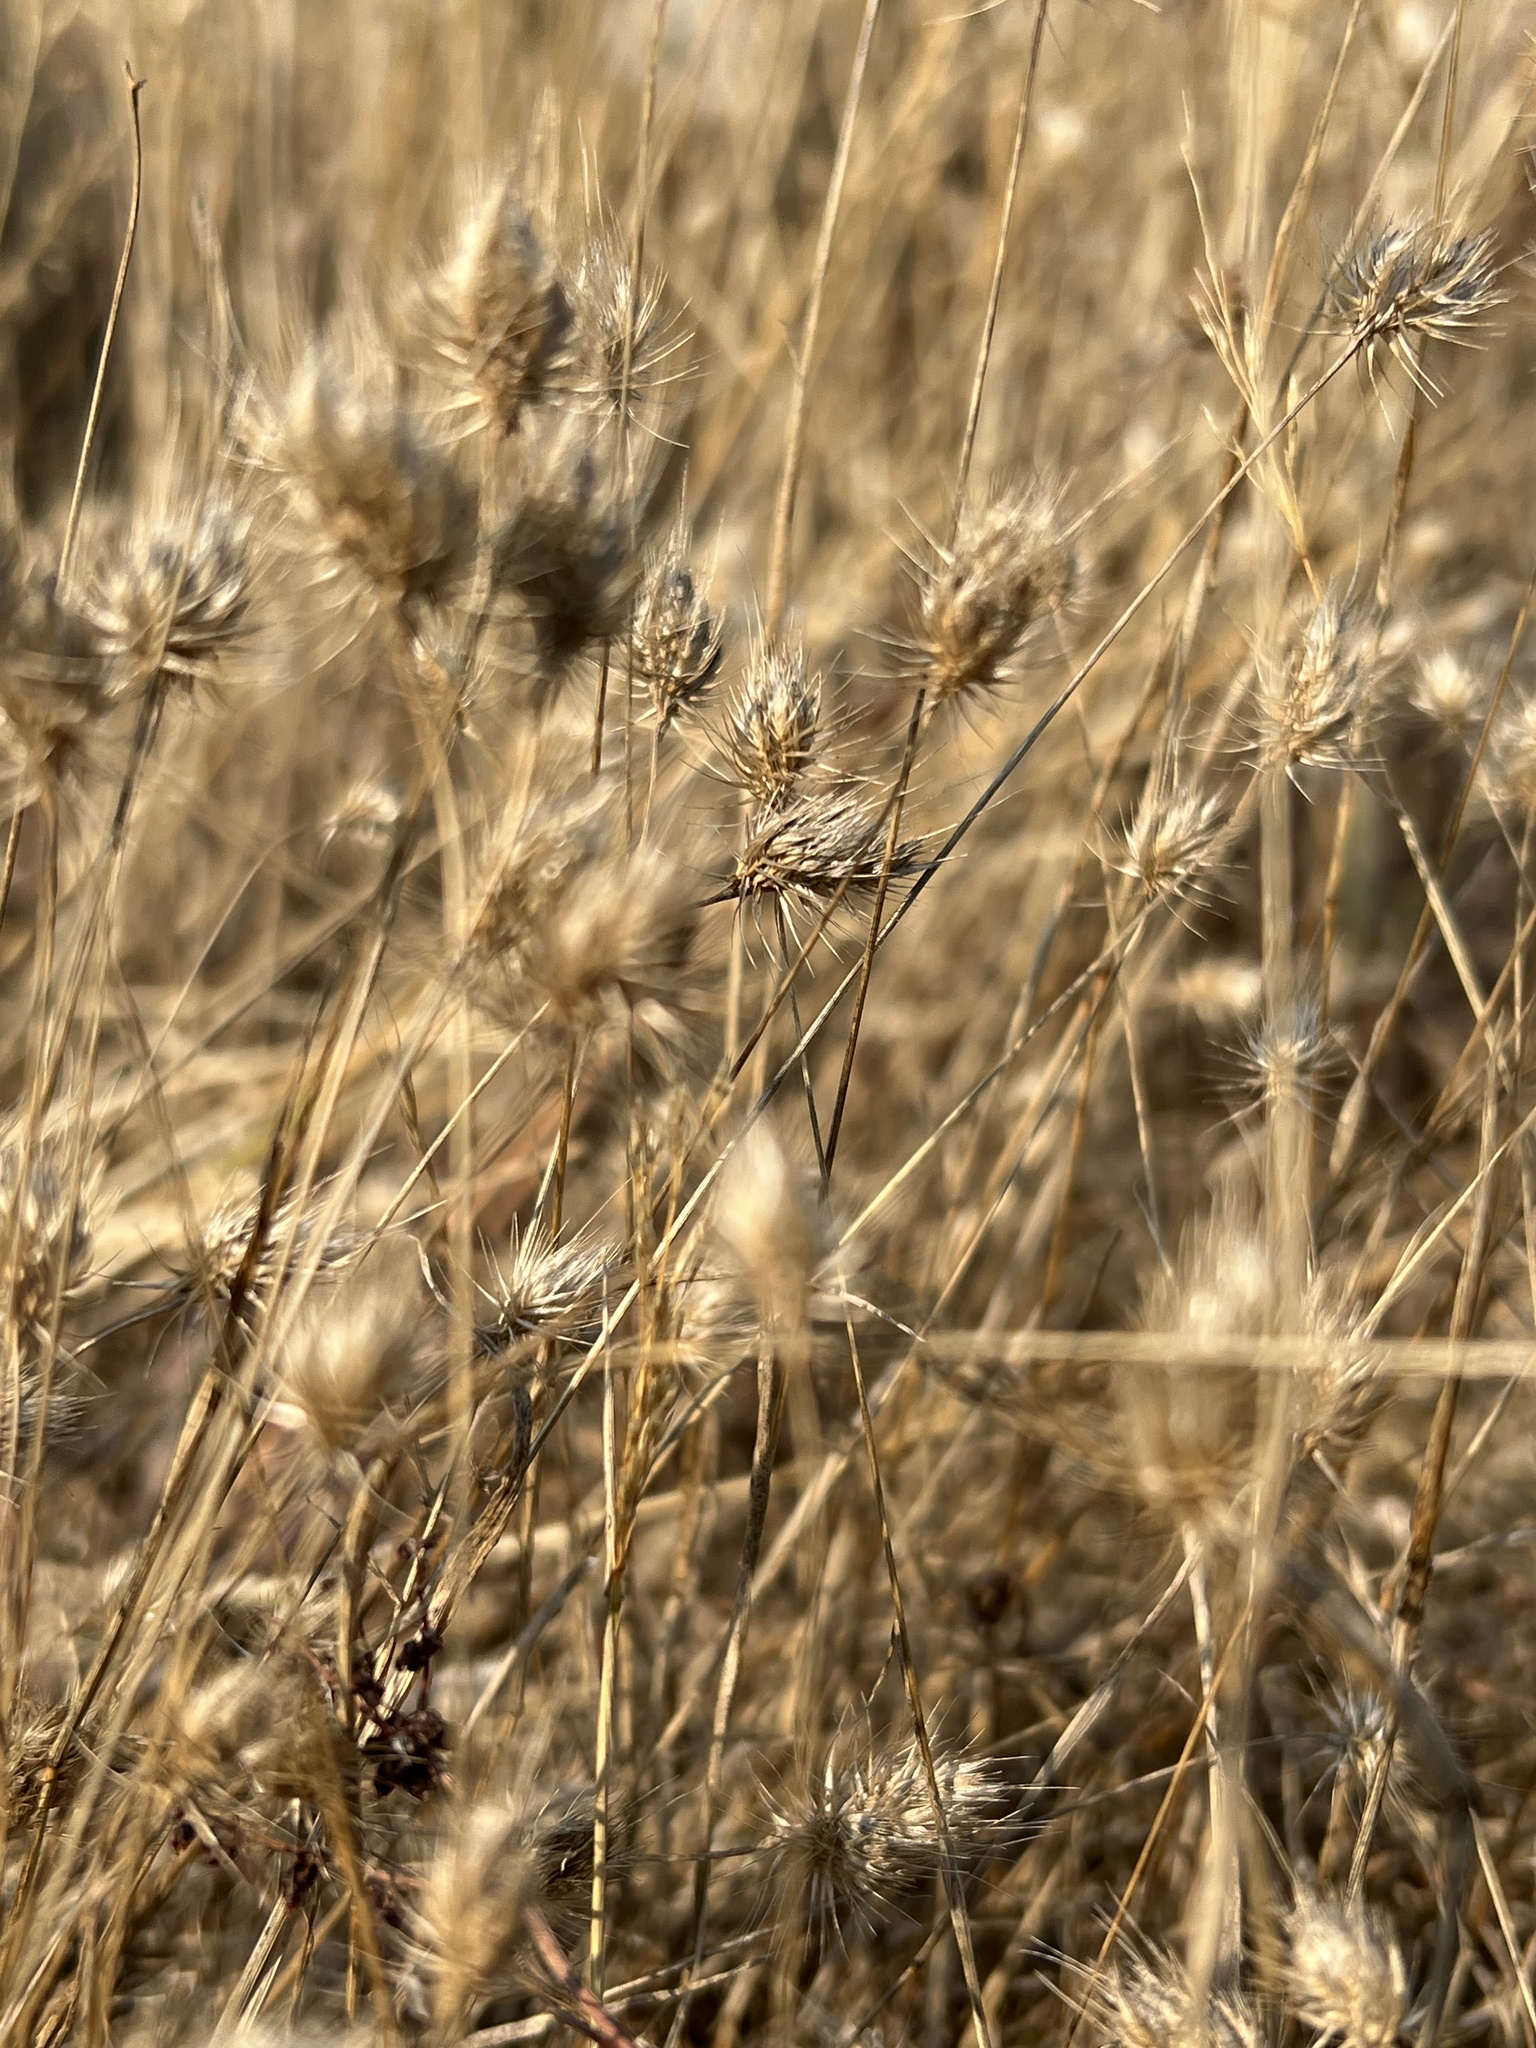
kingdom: Plantae
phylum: Tracheophyta
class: Liliopsida
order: Poales
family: Poaceae
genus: Cynosurus
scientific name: Cynosurus echinatus
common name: Rough dog's-tail
